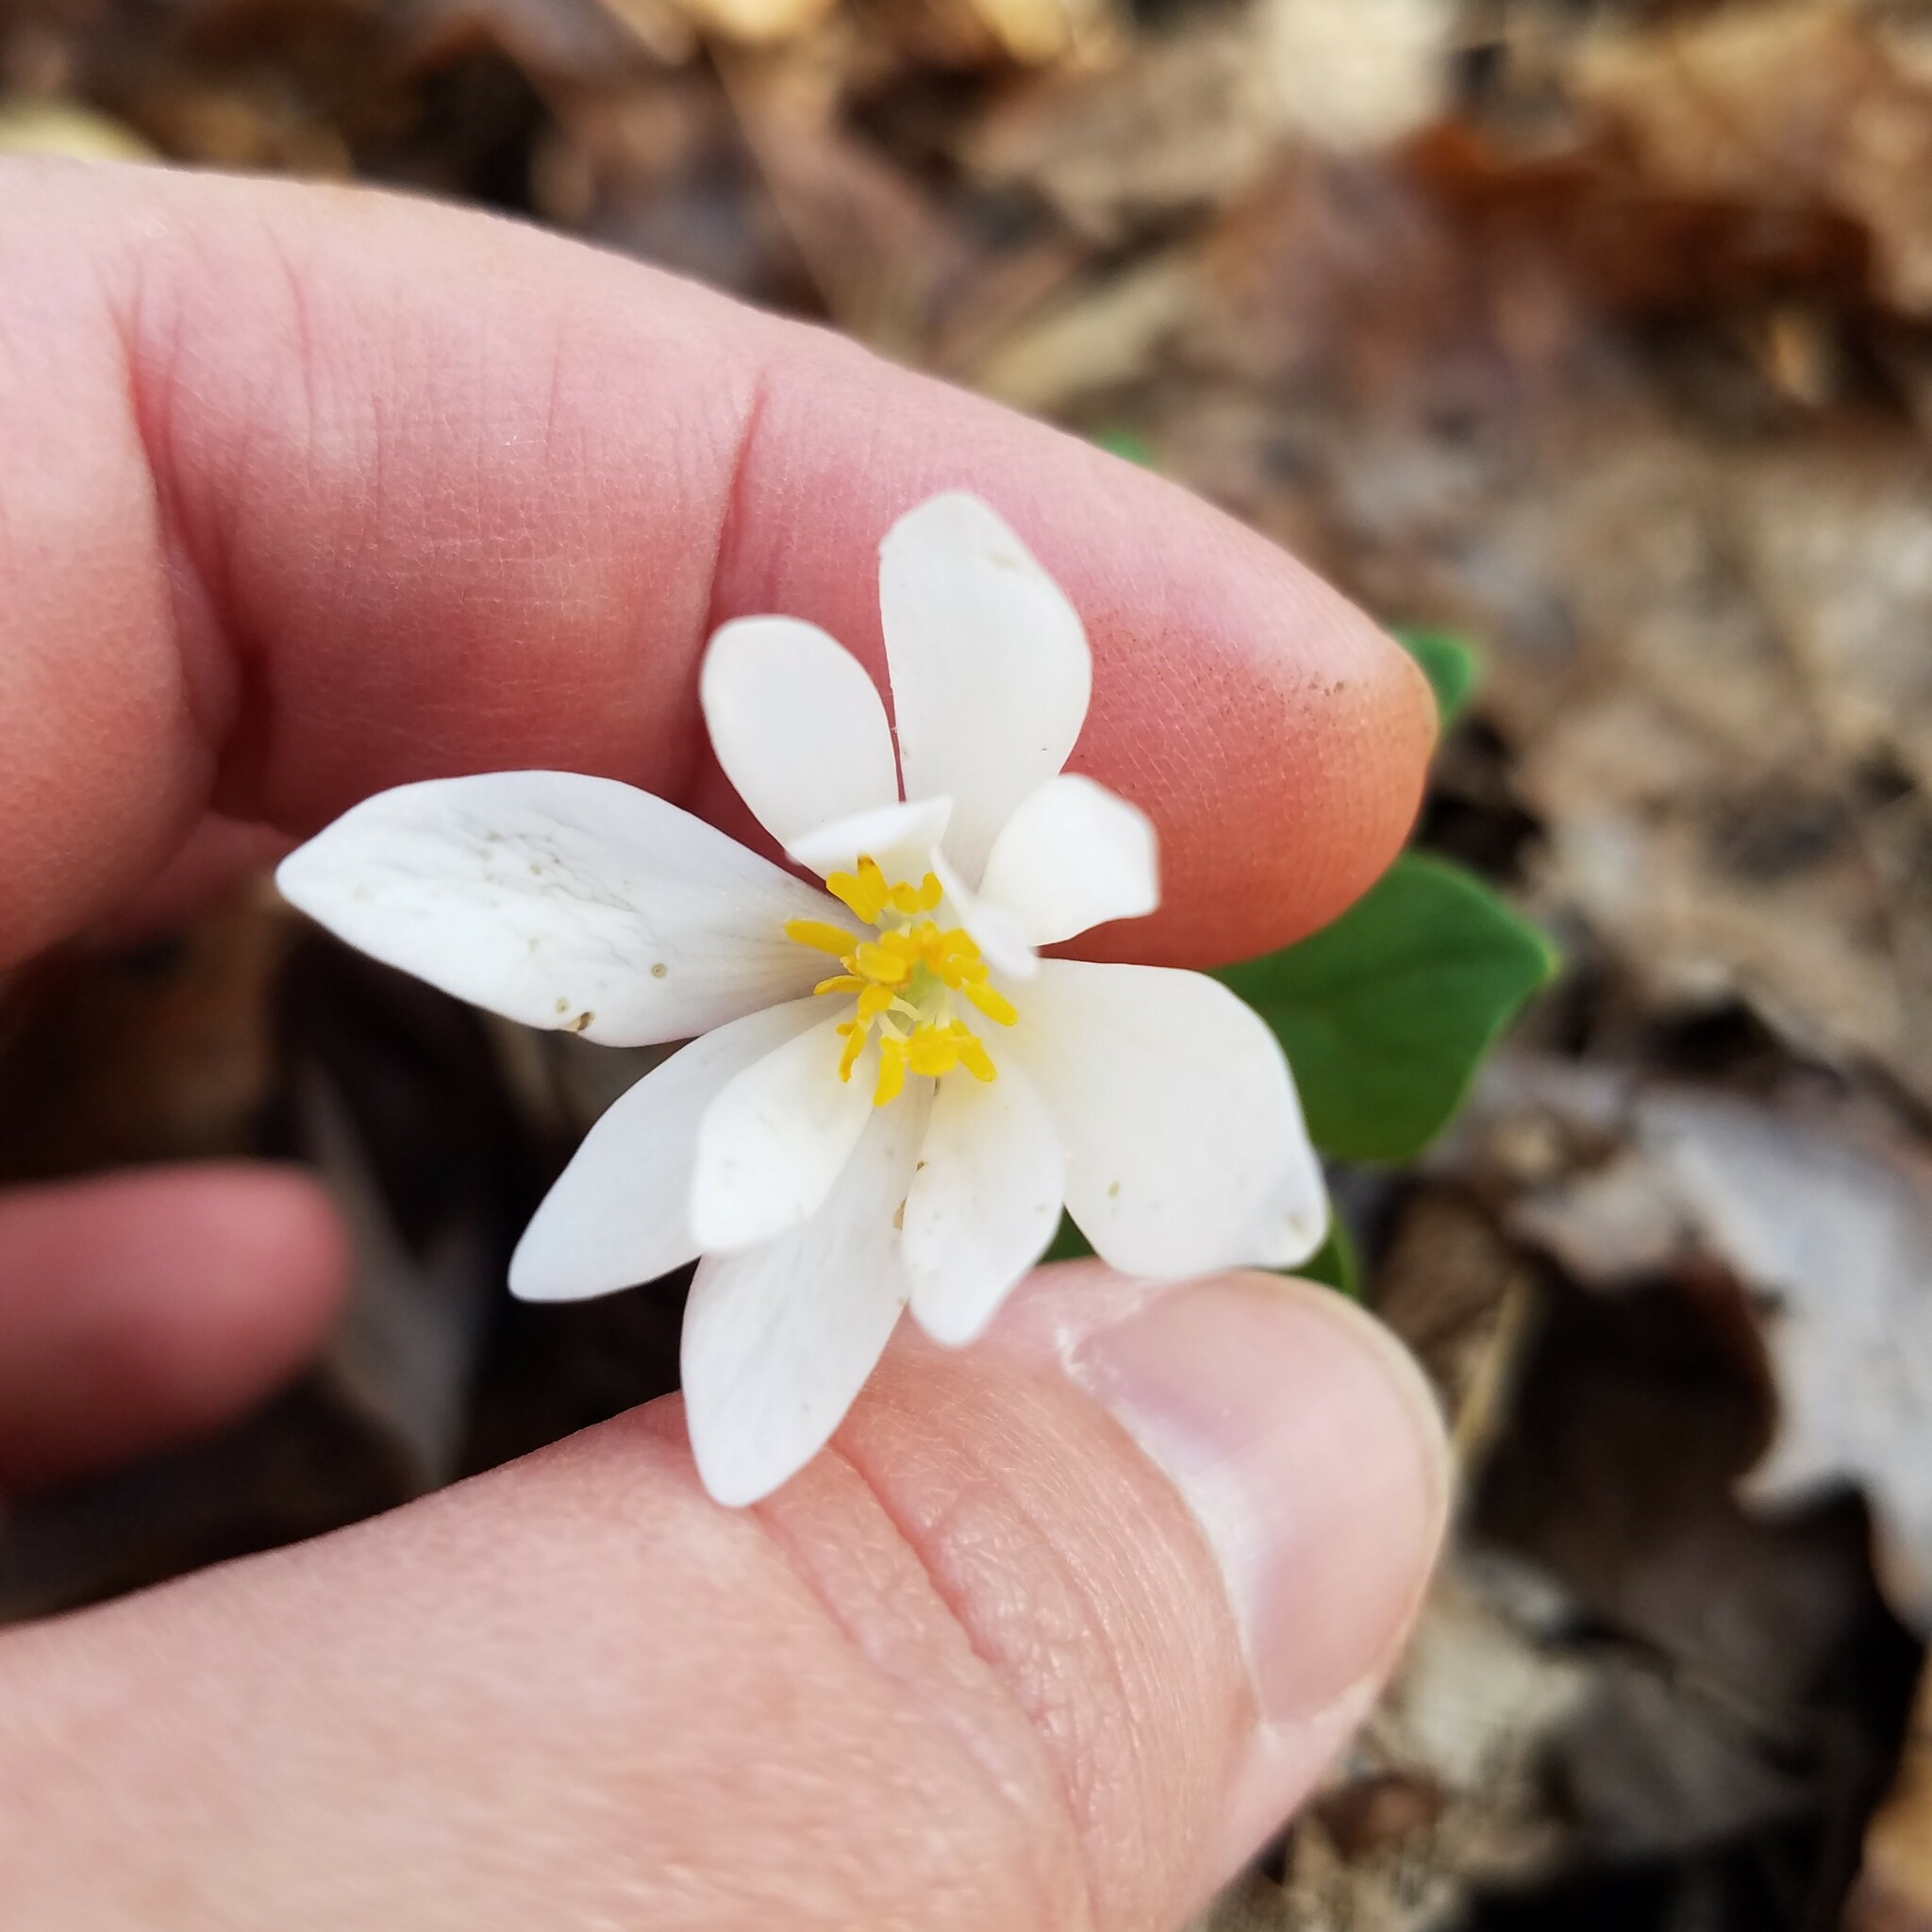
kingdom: Plantae
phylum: Tracheophyta
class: Magnoliopsida
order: Ranunculales
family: Papaveraceae
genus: Sanguinaria
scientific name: Sanguinaria canadensis
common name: Bloodroot
